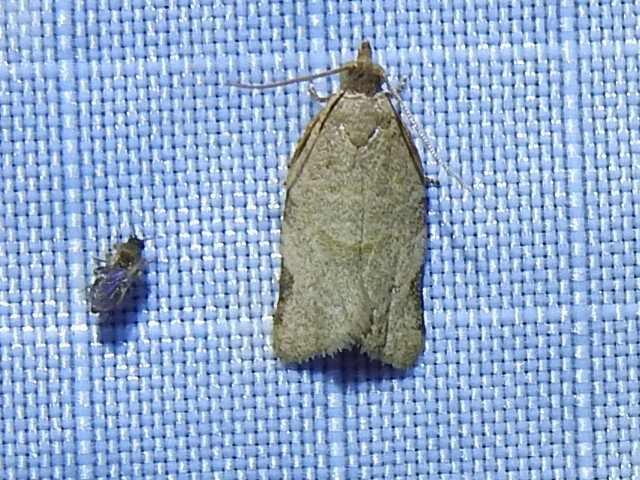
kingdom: Animalia
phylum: Arthropoda
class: Insecta
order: Lepidoptera
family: Tortricidae
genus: Clepsis
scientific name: Clepsis virescana
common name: Greenish apple moth
